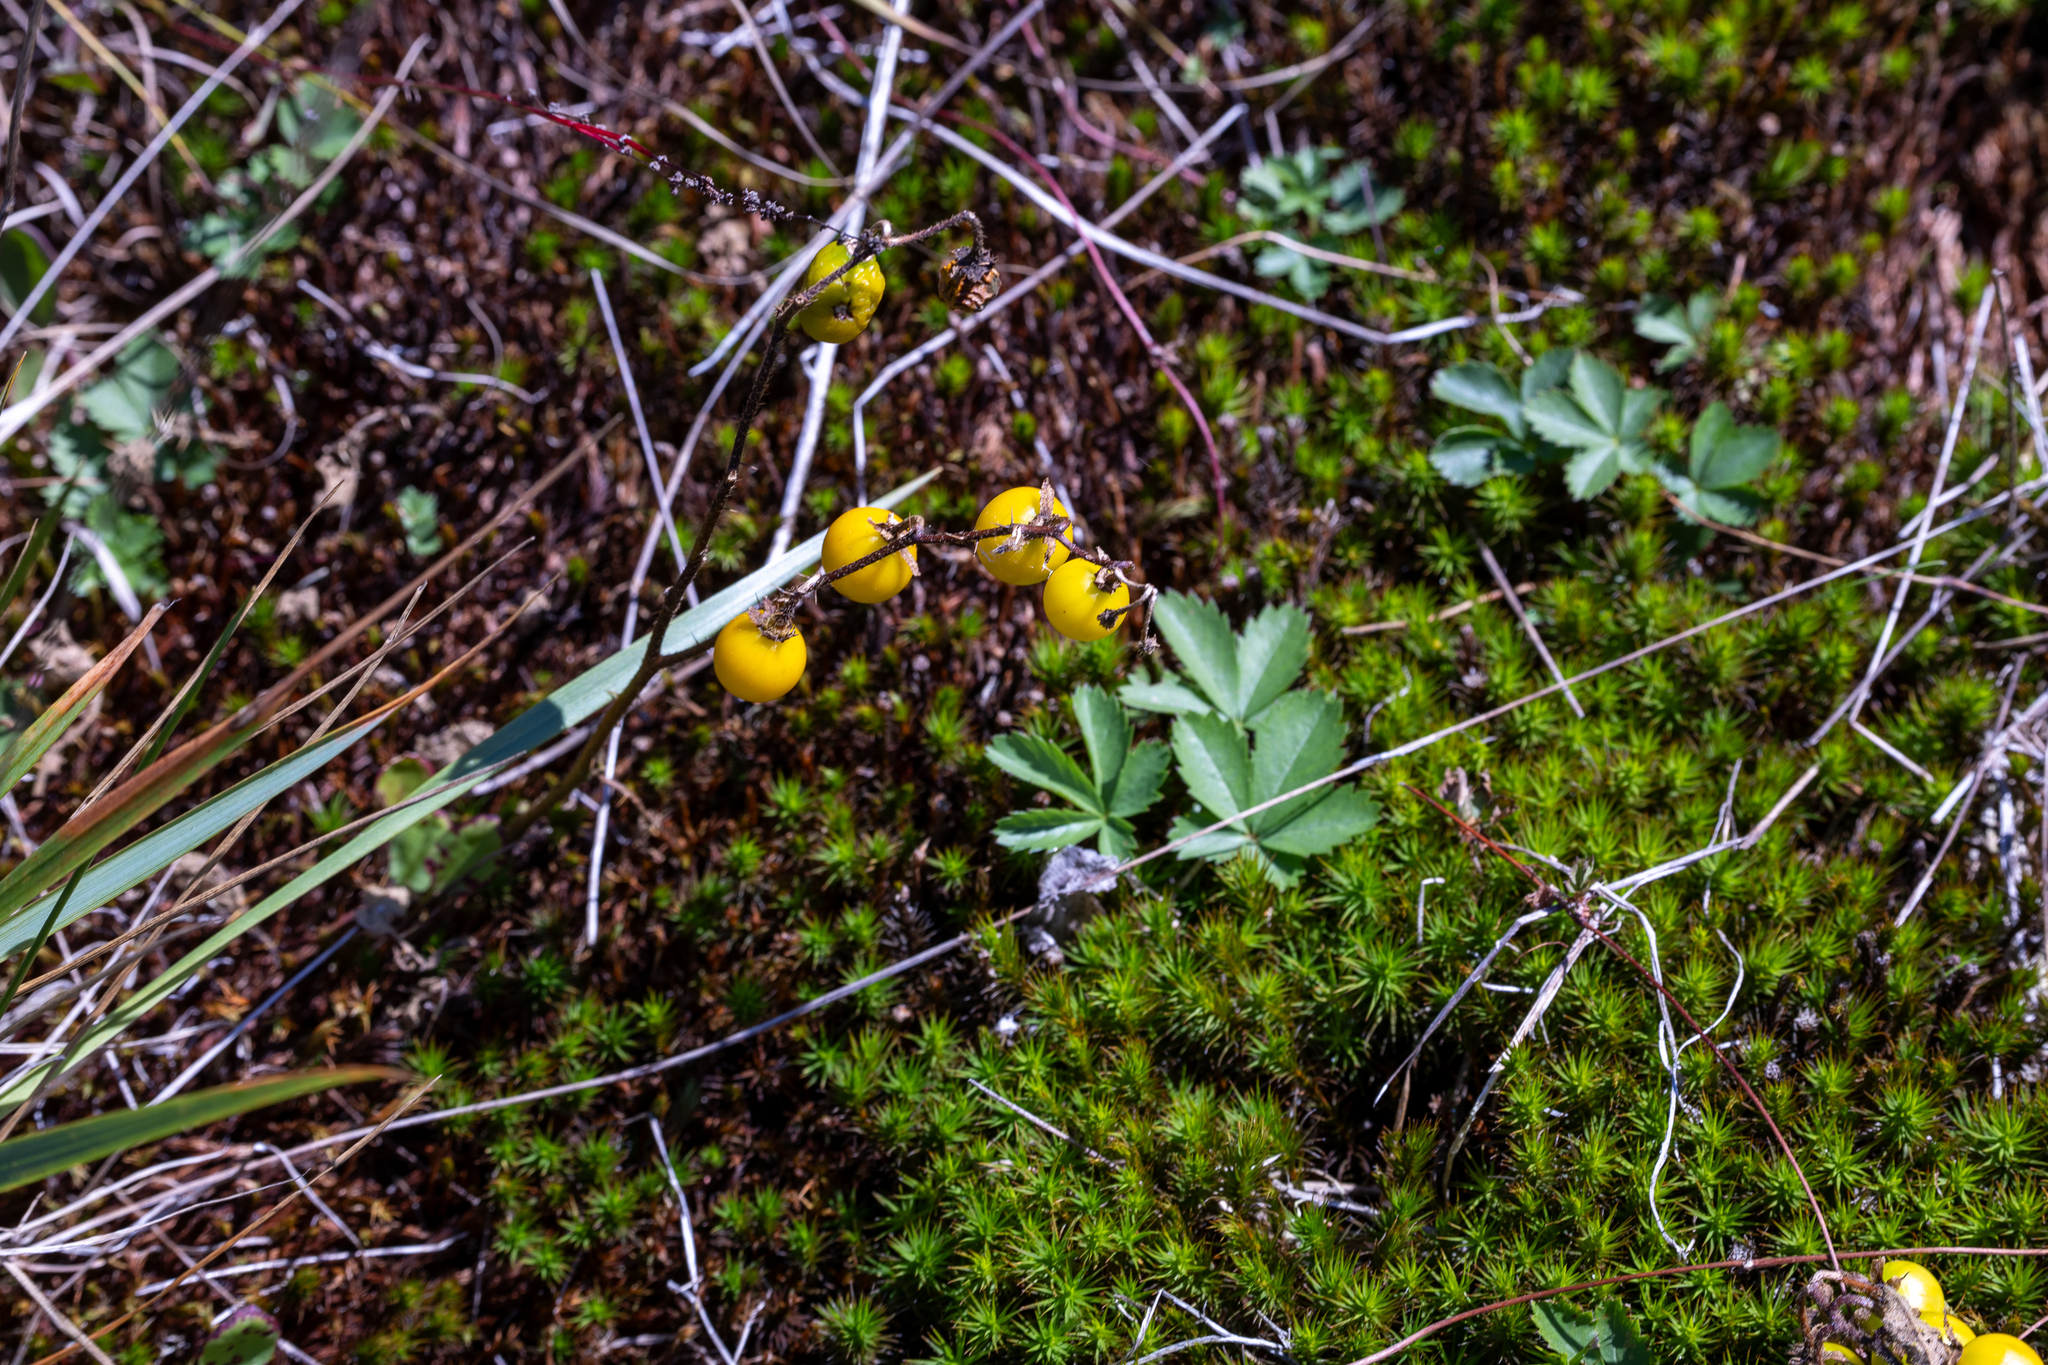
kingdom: Plantae
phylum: Tracheophyta
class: Magnoliopsida
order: Solanales
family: Solanaceae
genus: Solanum
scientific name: Solanum carolinense
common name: Horse-nettle
